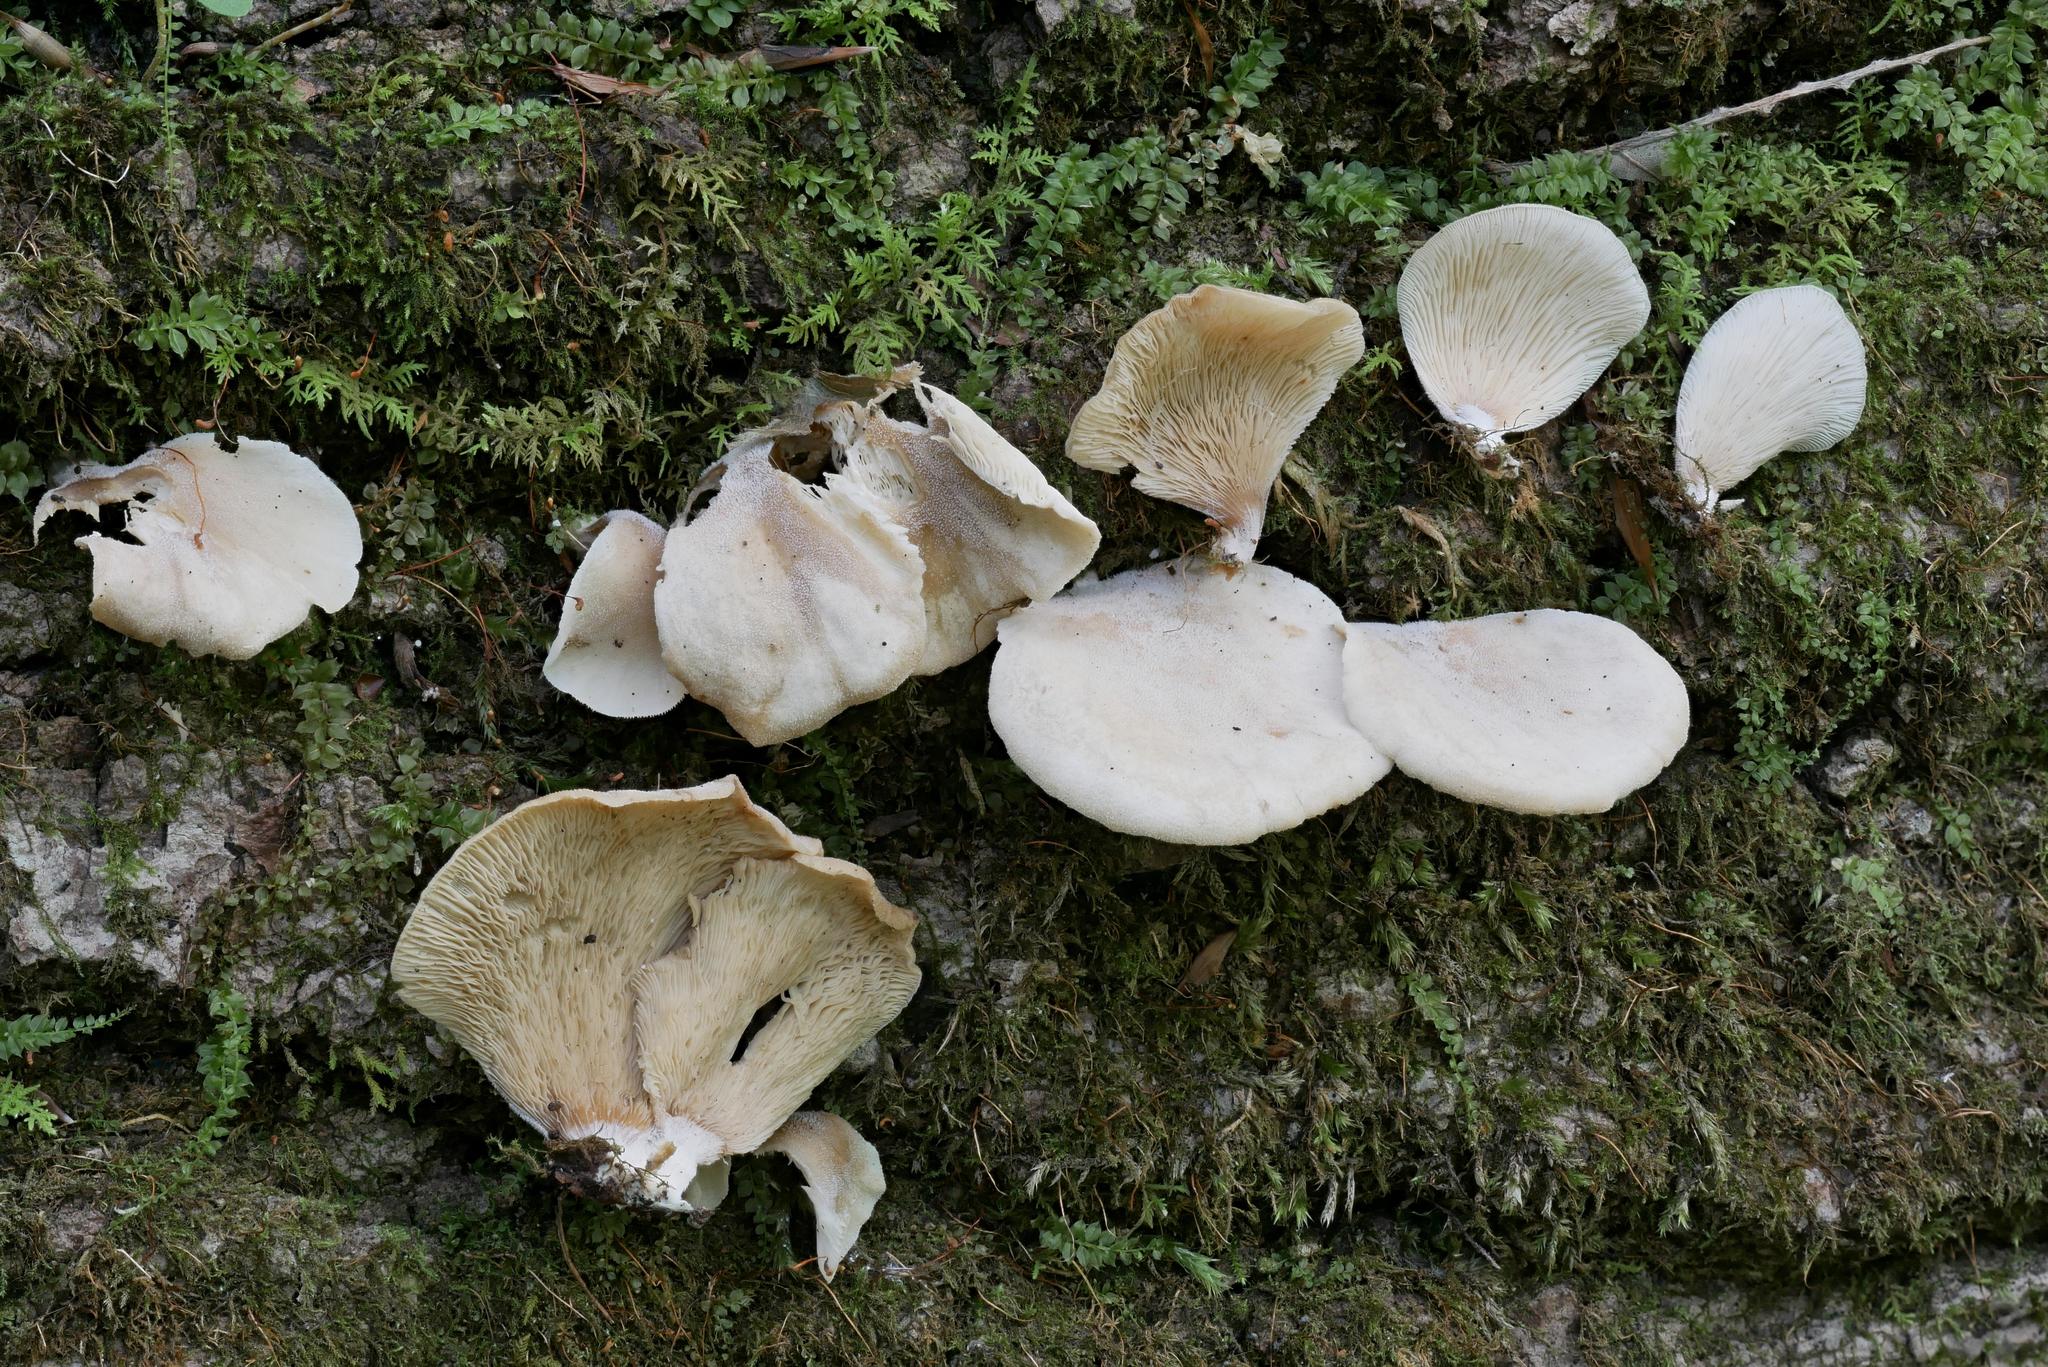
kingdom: Fungi
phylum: Basidiomycota
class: Agaricomycetes
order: Agaricales
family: Pleurotaceae
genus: Hohenbuehelia
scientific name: Hohenbuehelia angustata
